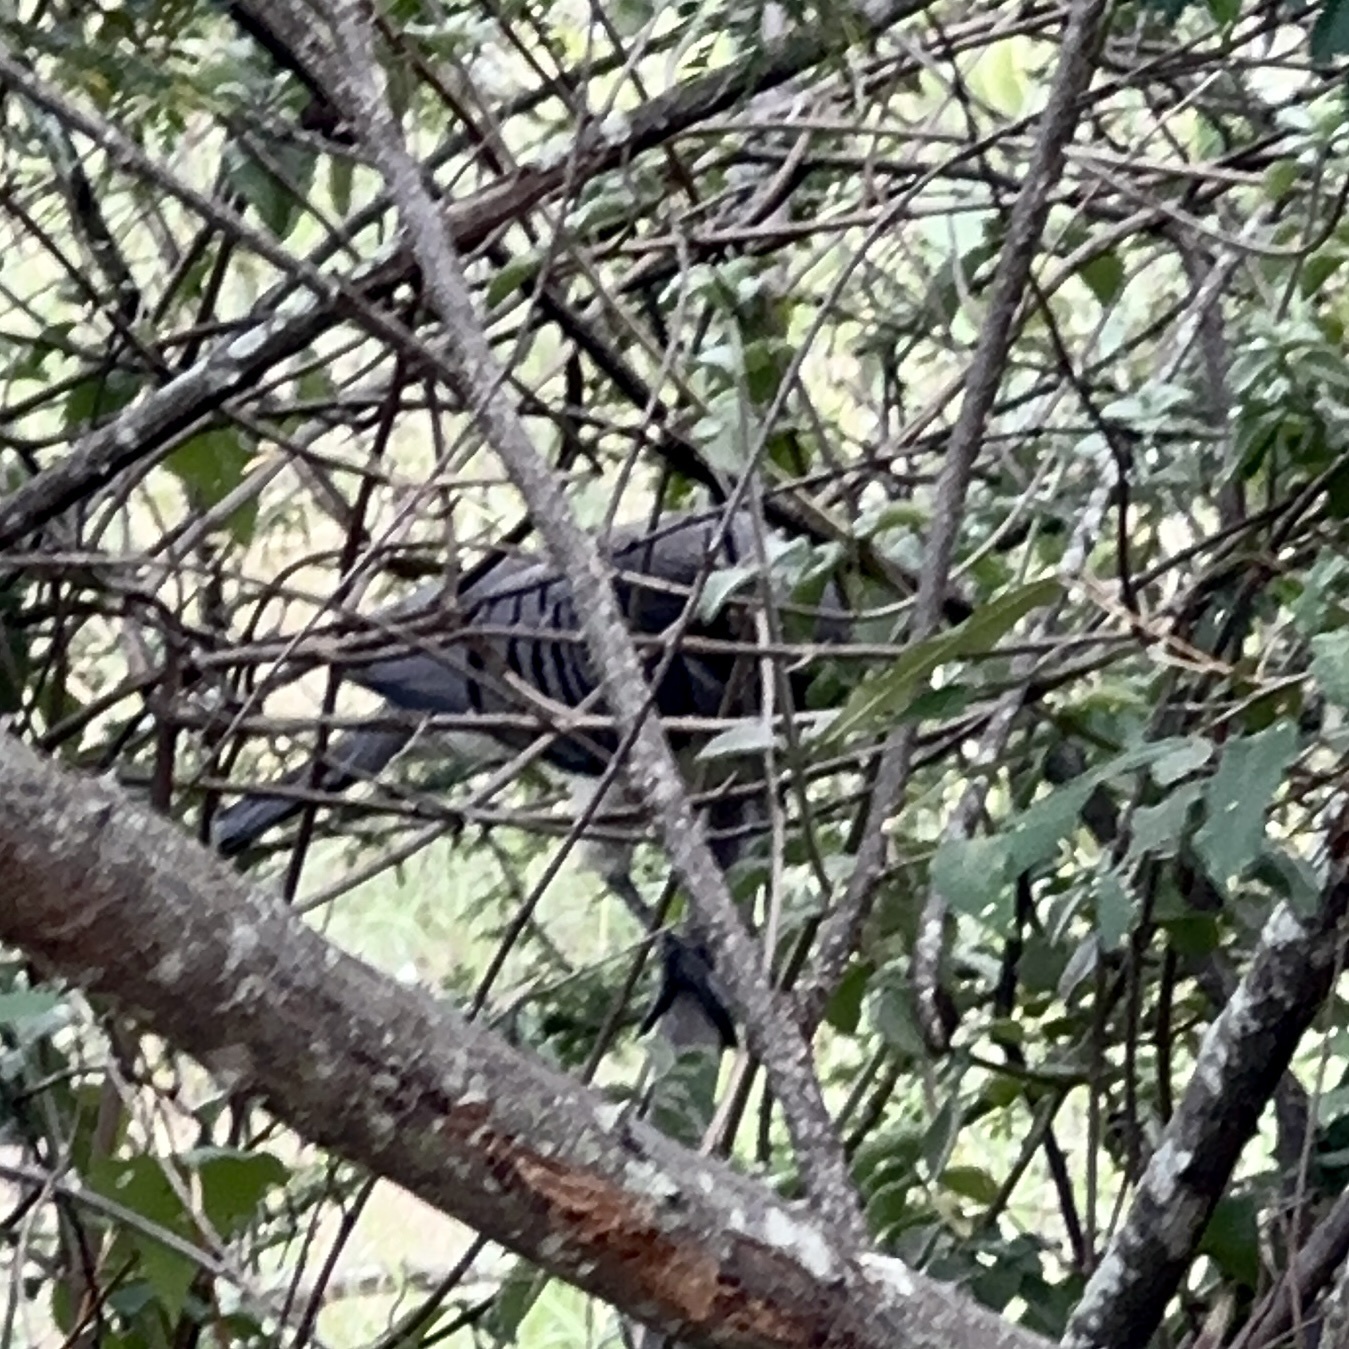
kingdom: Animalia
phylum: Chordata
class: Aves
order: Musophagiformes
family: Musophagidae
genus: Corythaixoides
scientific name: Corythaixoides leucogaster
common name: White-bellied go-away-bird
